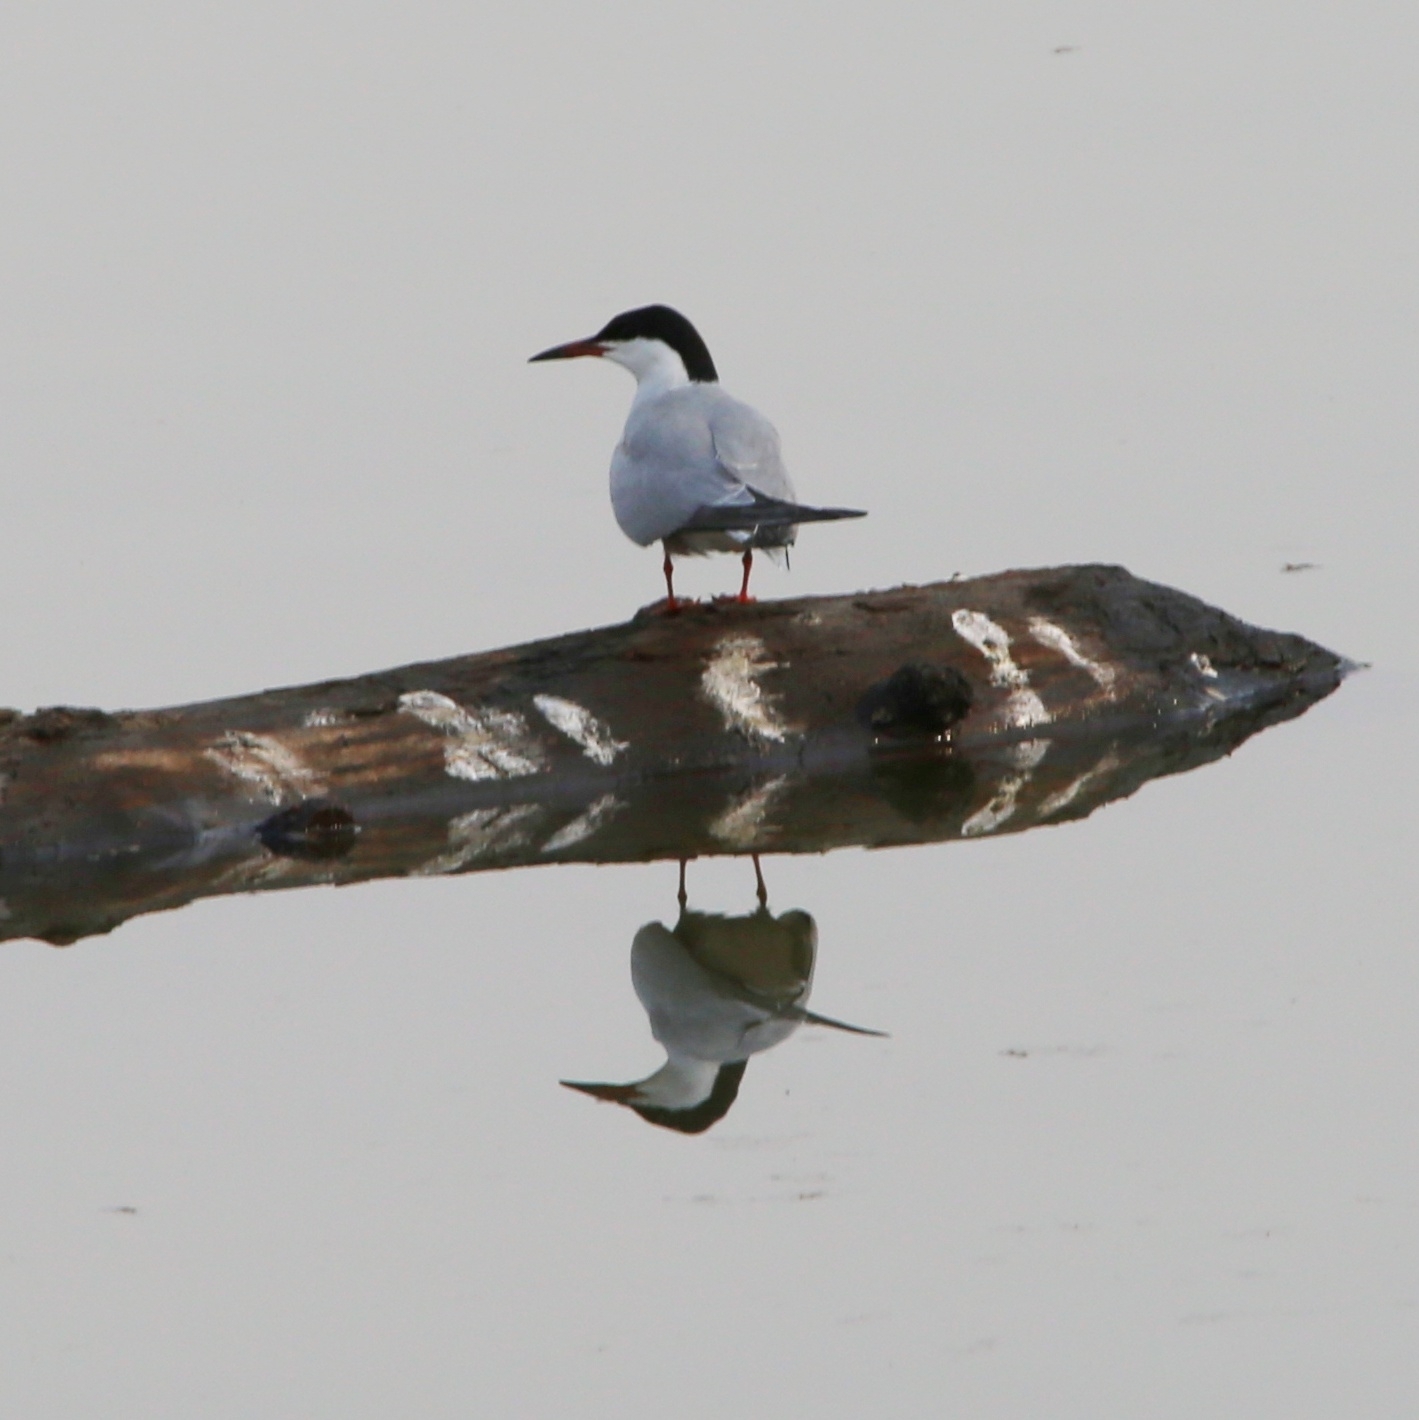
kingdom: Animalia
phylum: Chordata
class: Aves
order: Charadriiformes
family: Laridae
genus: Sterna
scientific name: Sterna hirundo
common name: Common tern
